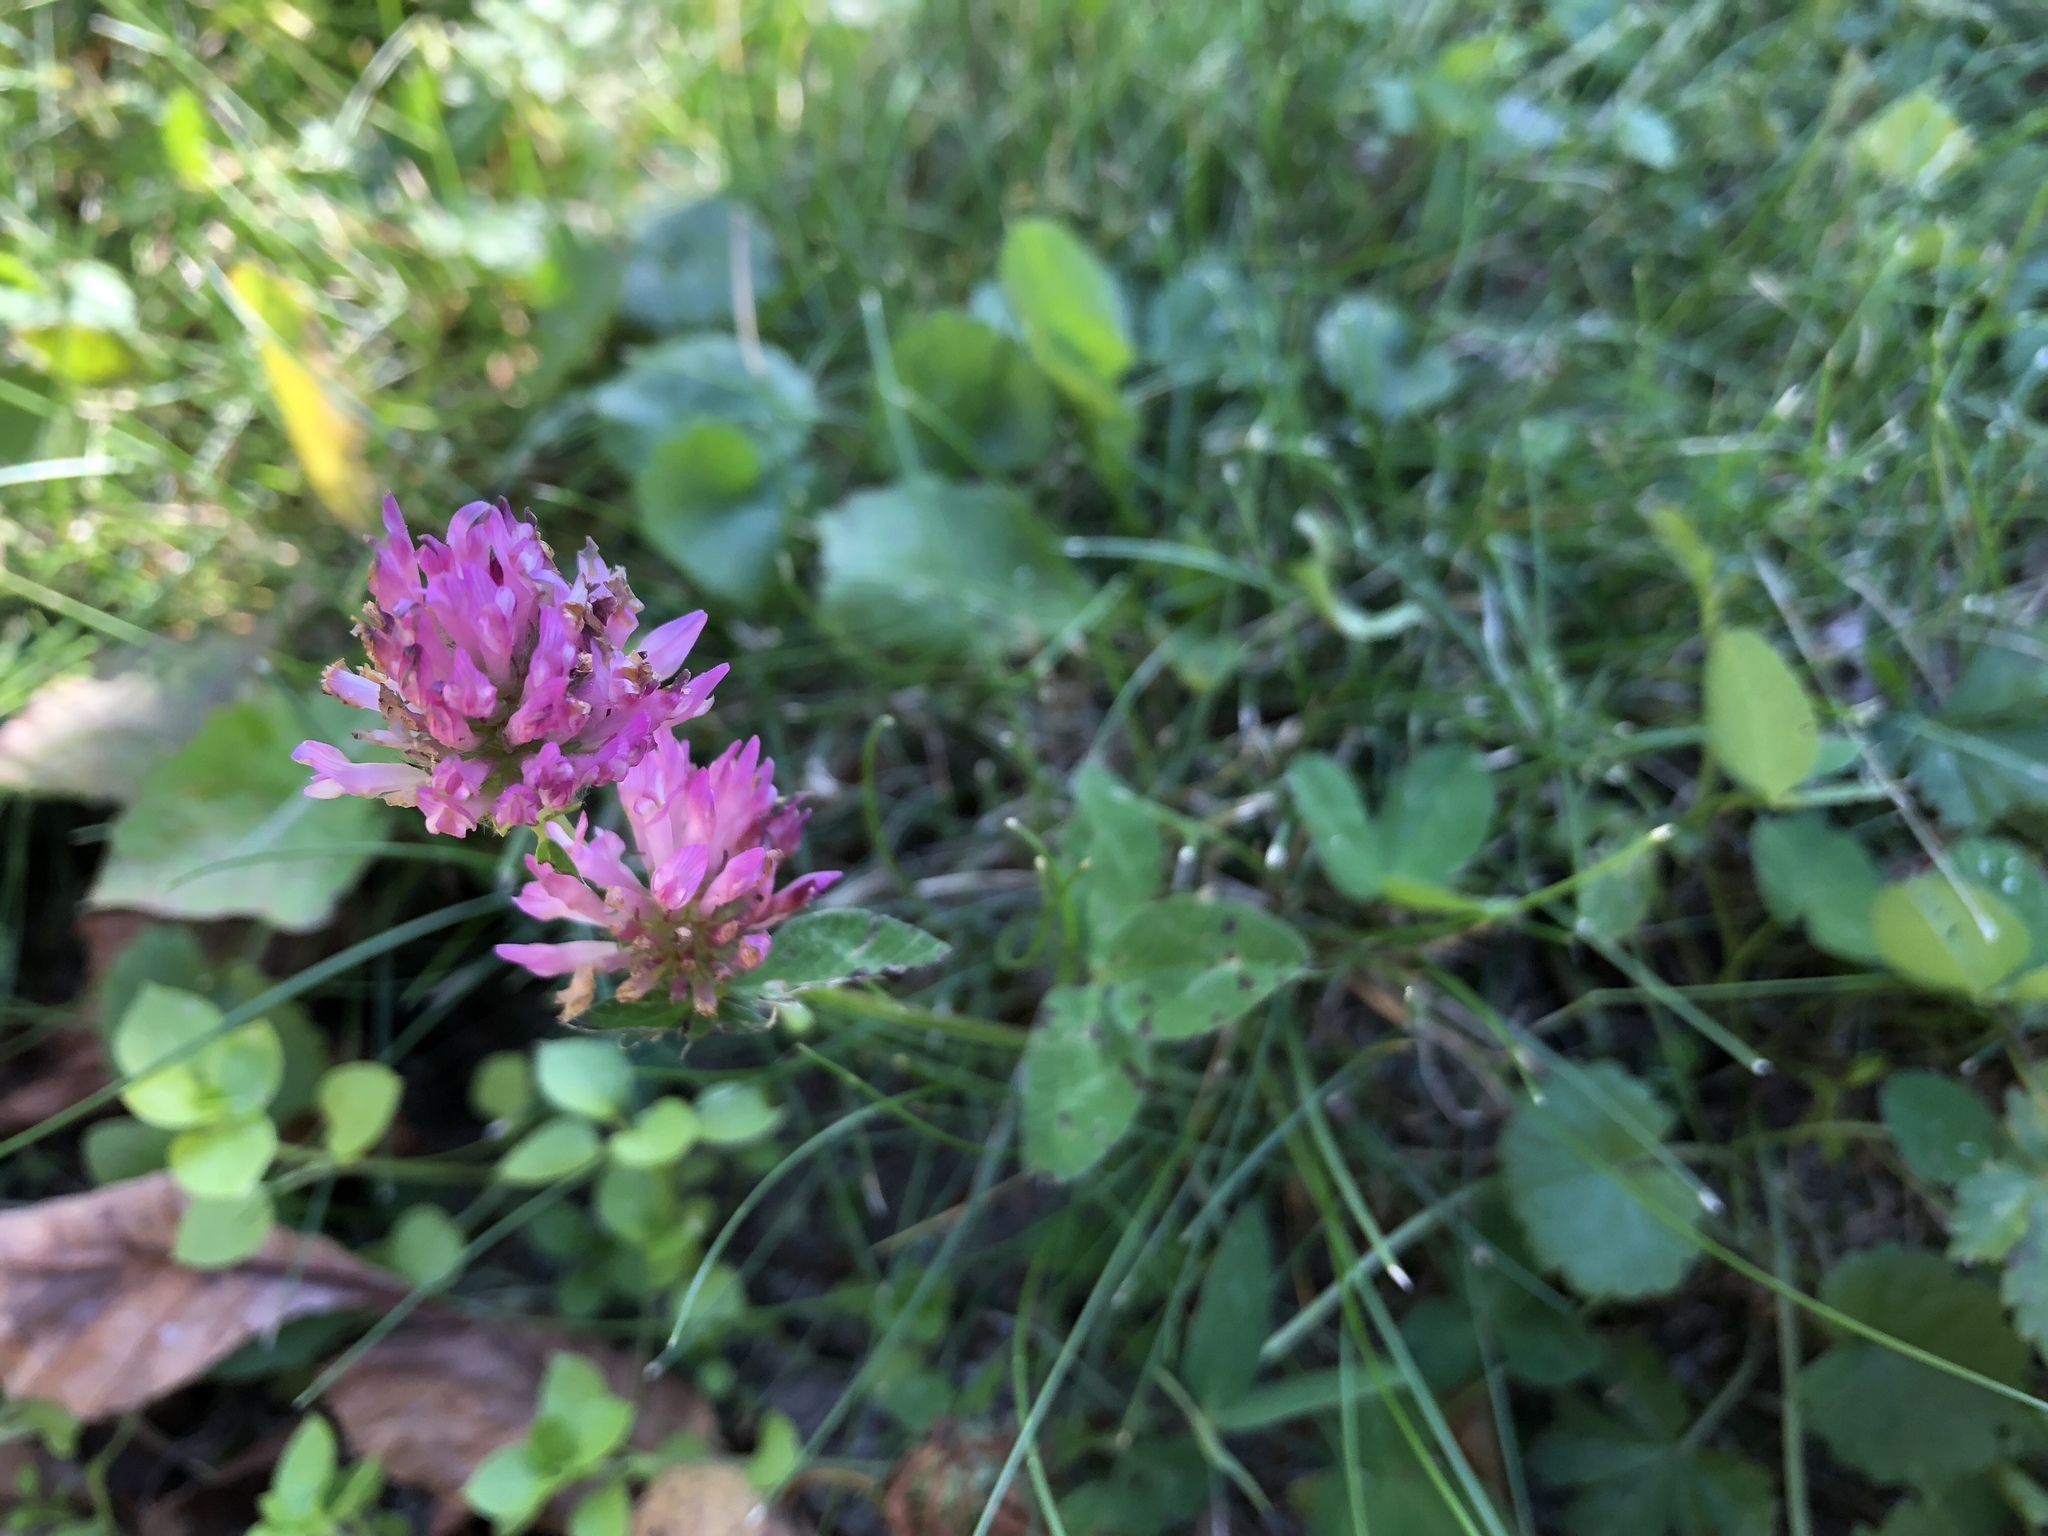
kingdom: Plantae
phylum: Tracheophyta
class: Magnoliopsida
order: Fabales
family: Fabaceae
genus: Trifolium
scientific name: Trifolium pratense
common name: Red clover
